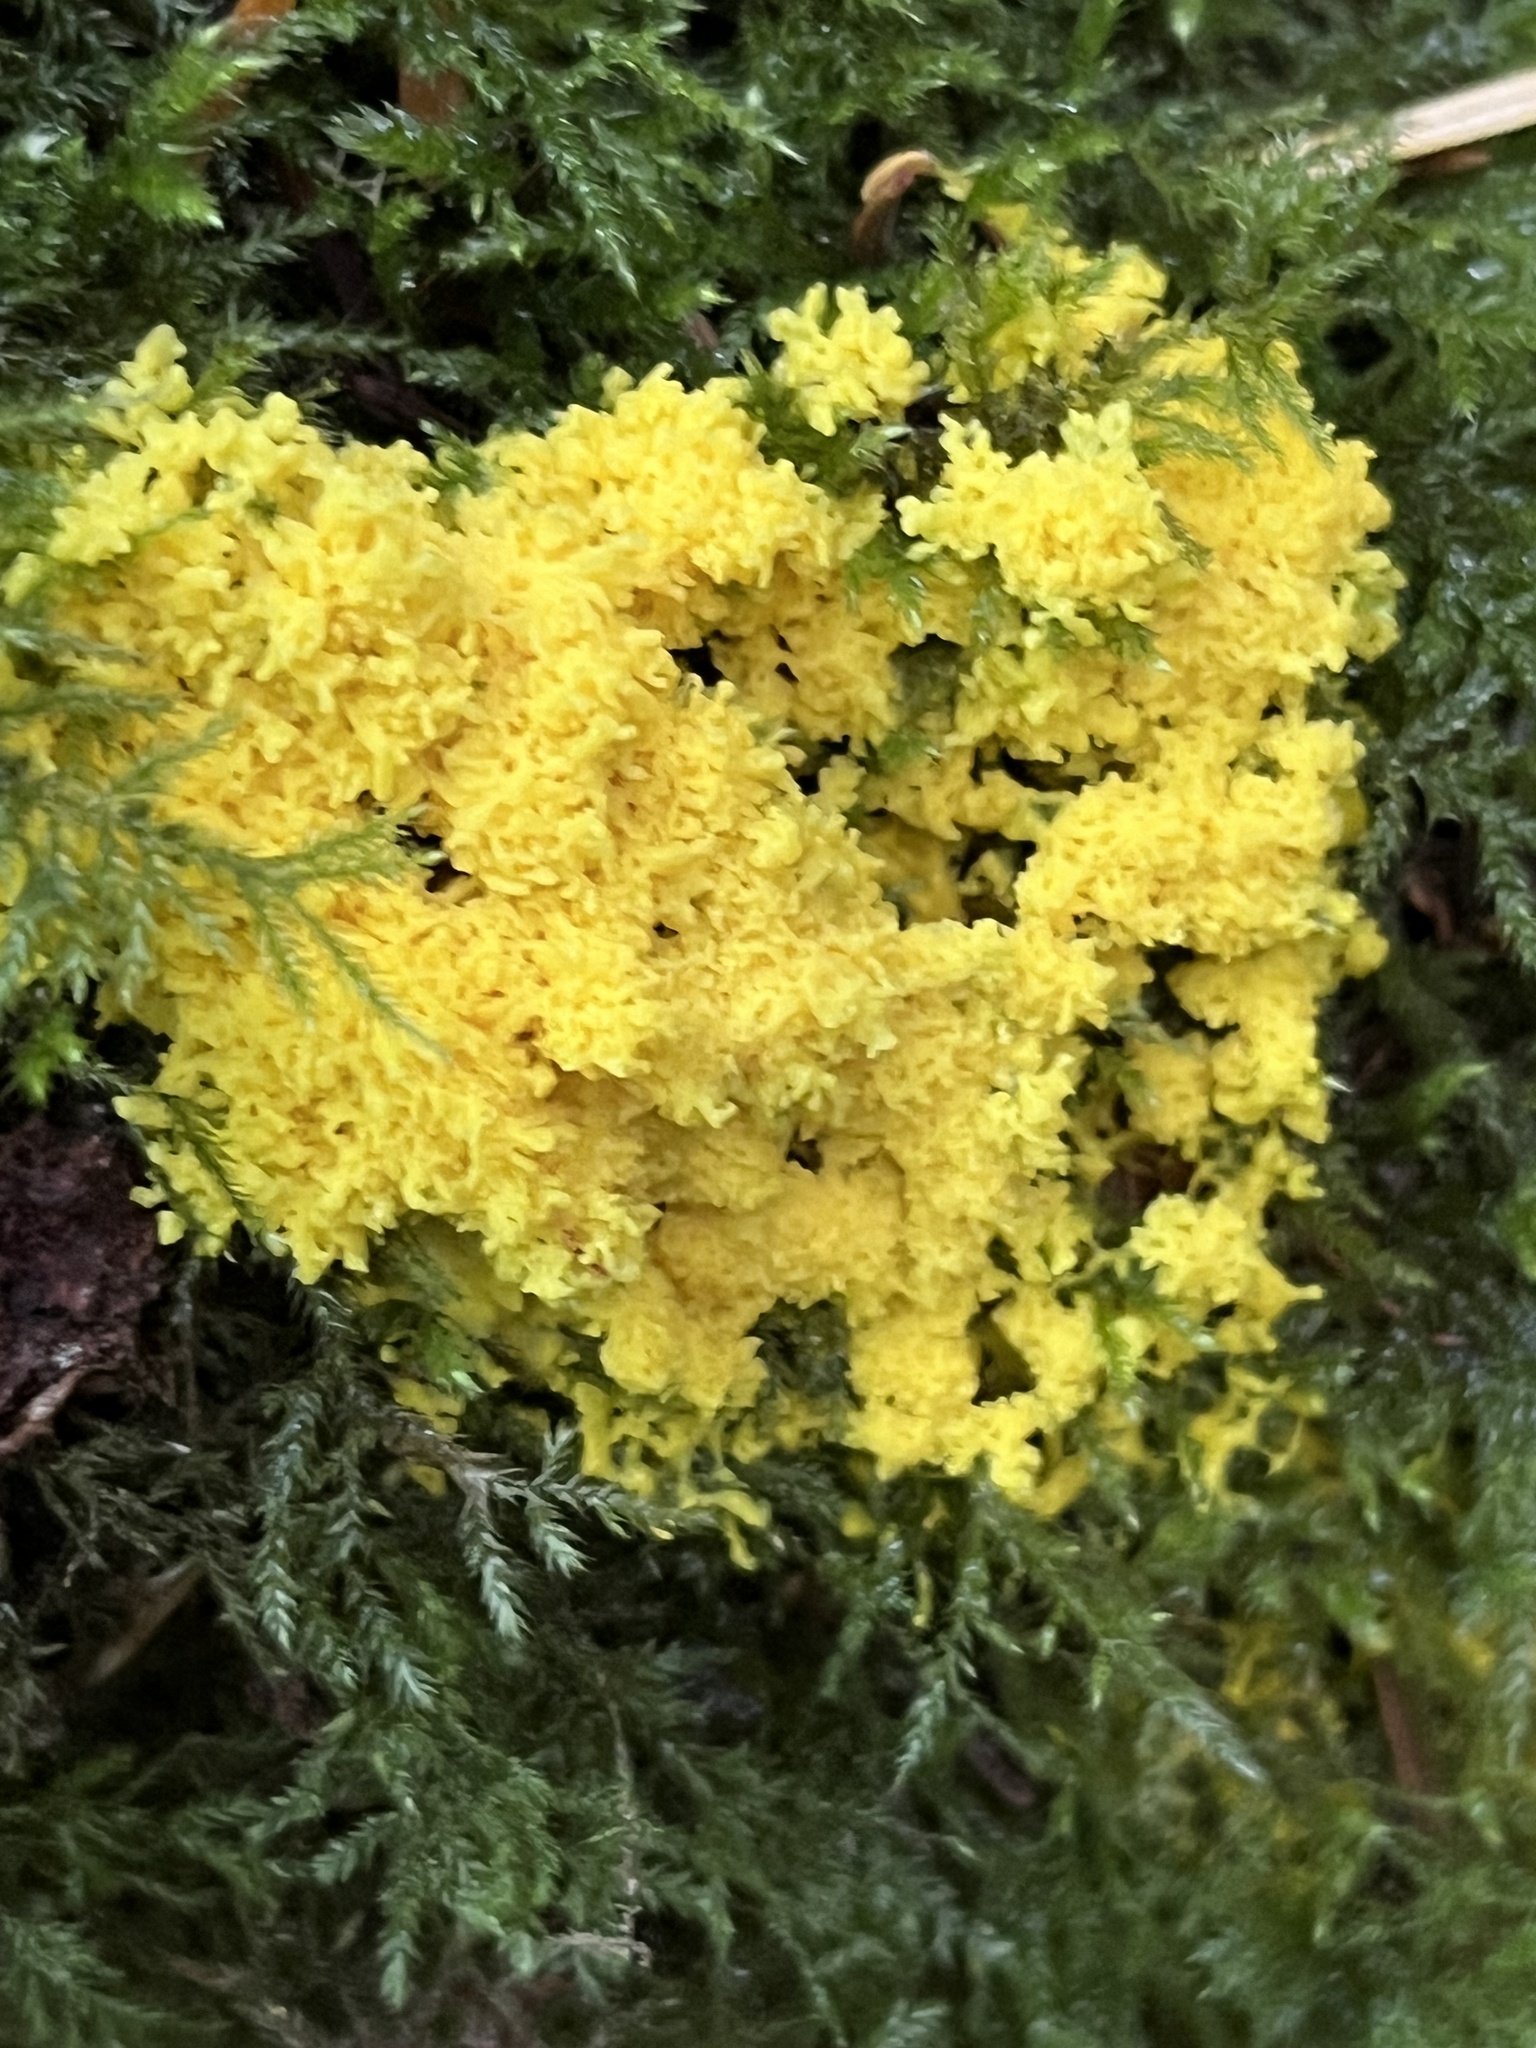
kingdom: Protozoa
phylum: Mycetozoa
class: Myxomycetes
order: Physarales
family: Physaraceae
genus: Fuligo
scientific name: Fuligo septica
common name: Dog vomit slime mold
